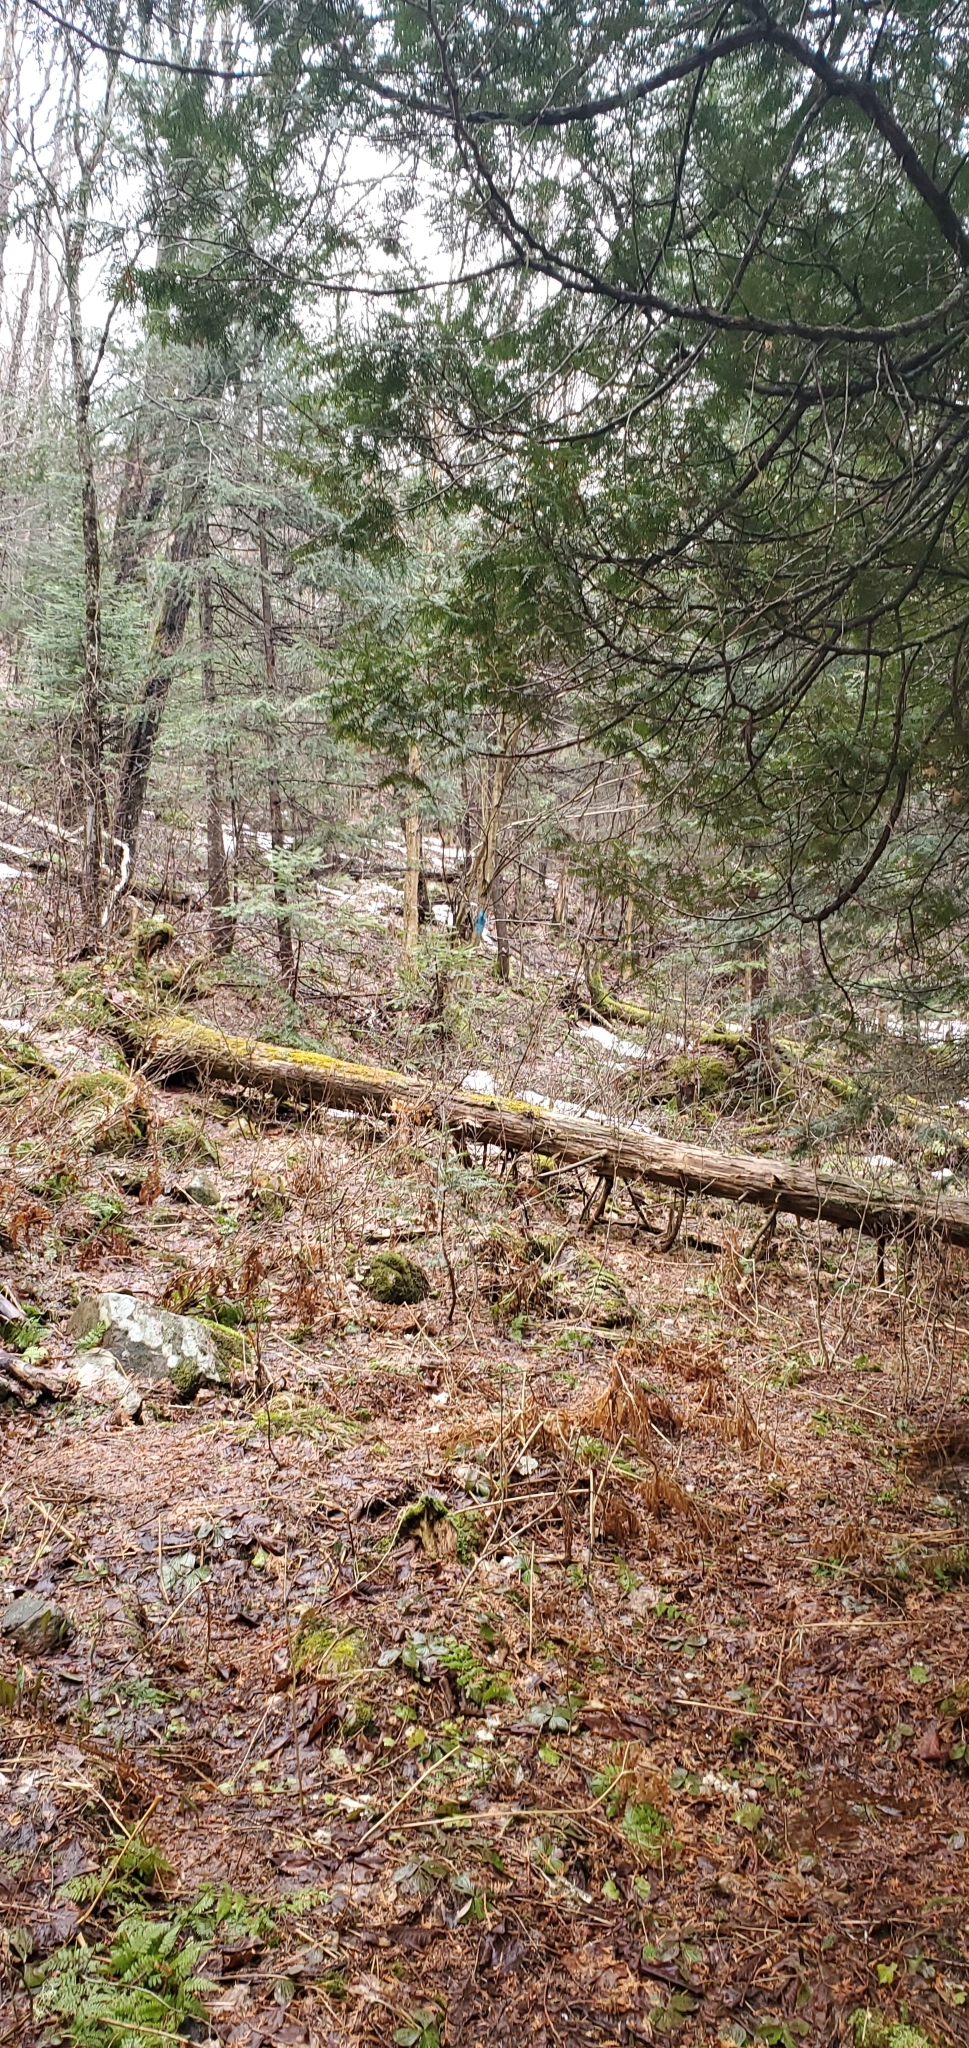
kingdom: Plantae
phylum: Tracheophyta
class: Pinopsida
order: Pinales
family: Cupressaceae
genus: Thuja
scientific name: Thuja occidentalis
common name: Northern white-cedar
